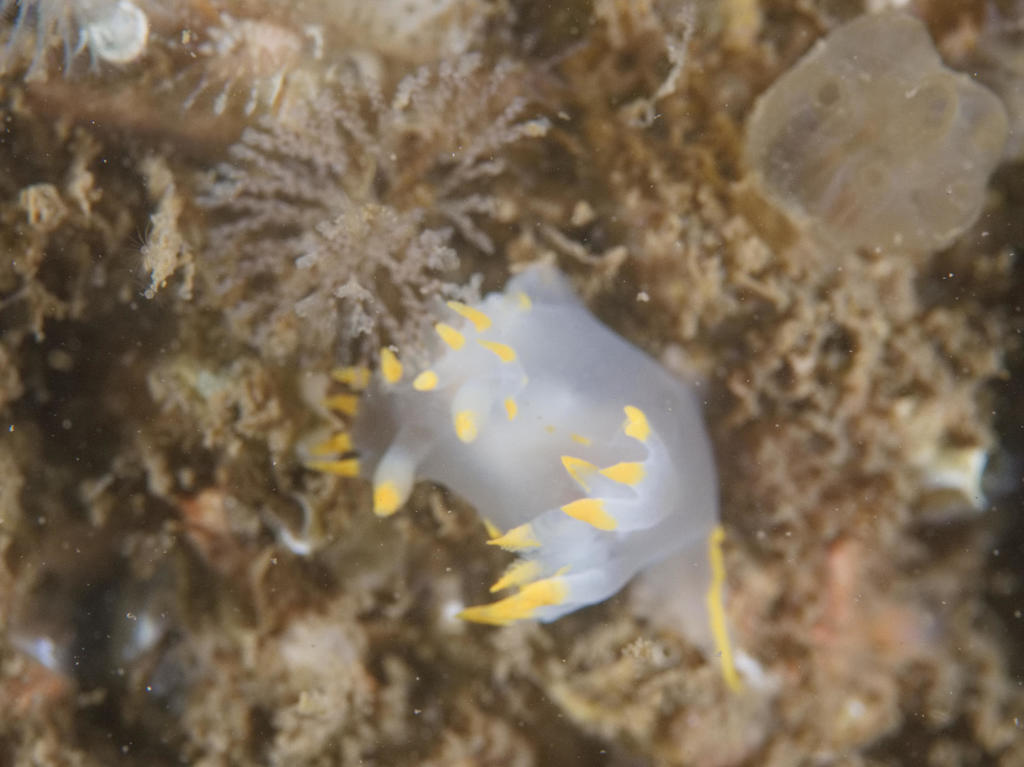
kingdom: Animalia
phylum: Mollusca
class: Gastropoda
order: Nudibranchia
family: Polyceridae
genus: Polycera
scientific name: Polycera faeroensis
